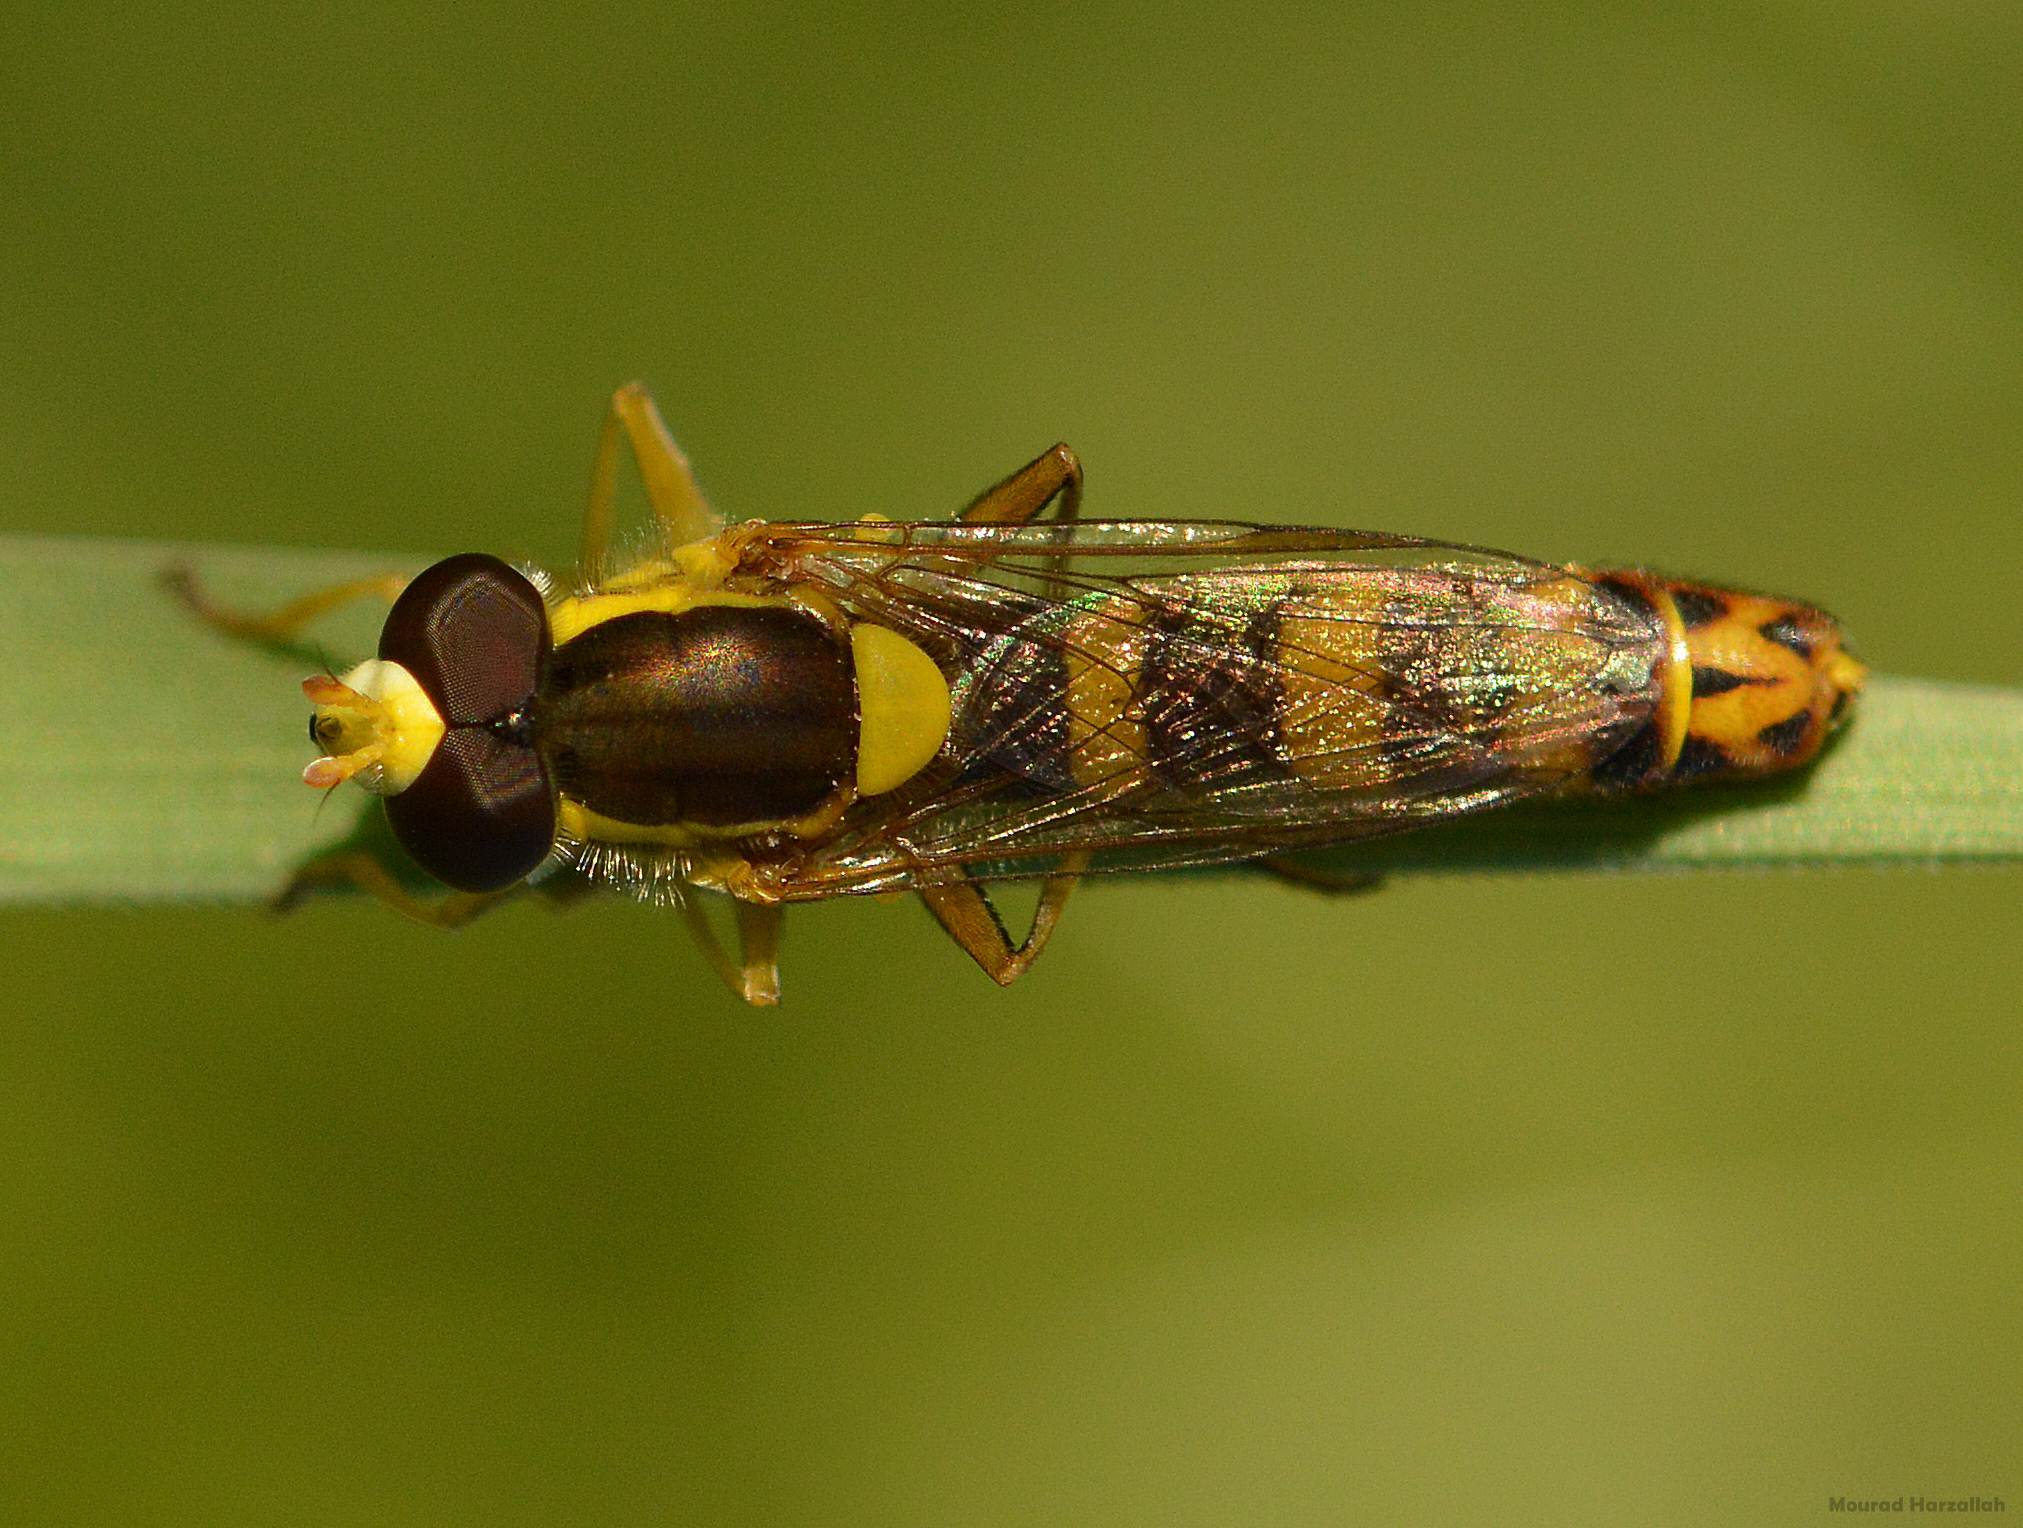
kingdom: Animalia
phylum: Arthropoda
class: Insecta
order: Diptera
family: Syrphidae
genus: Sphaerophoria
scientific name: Sphaerophoria scripta
